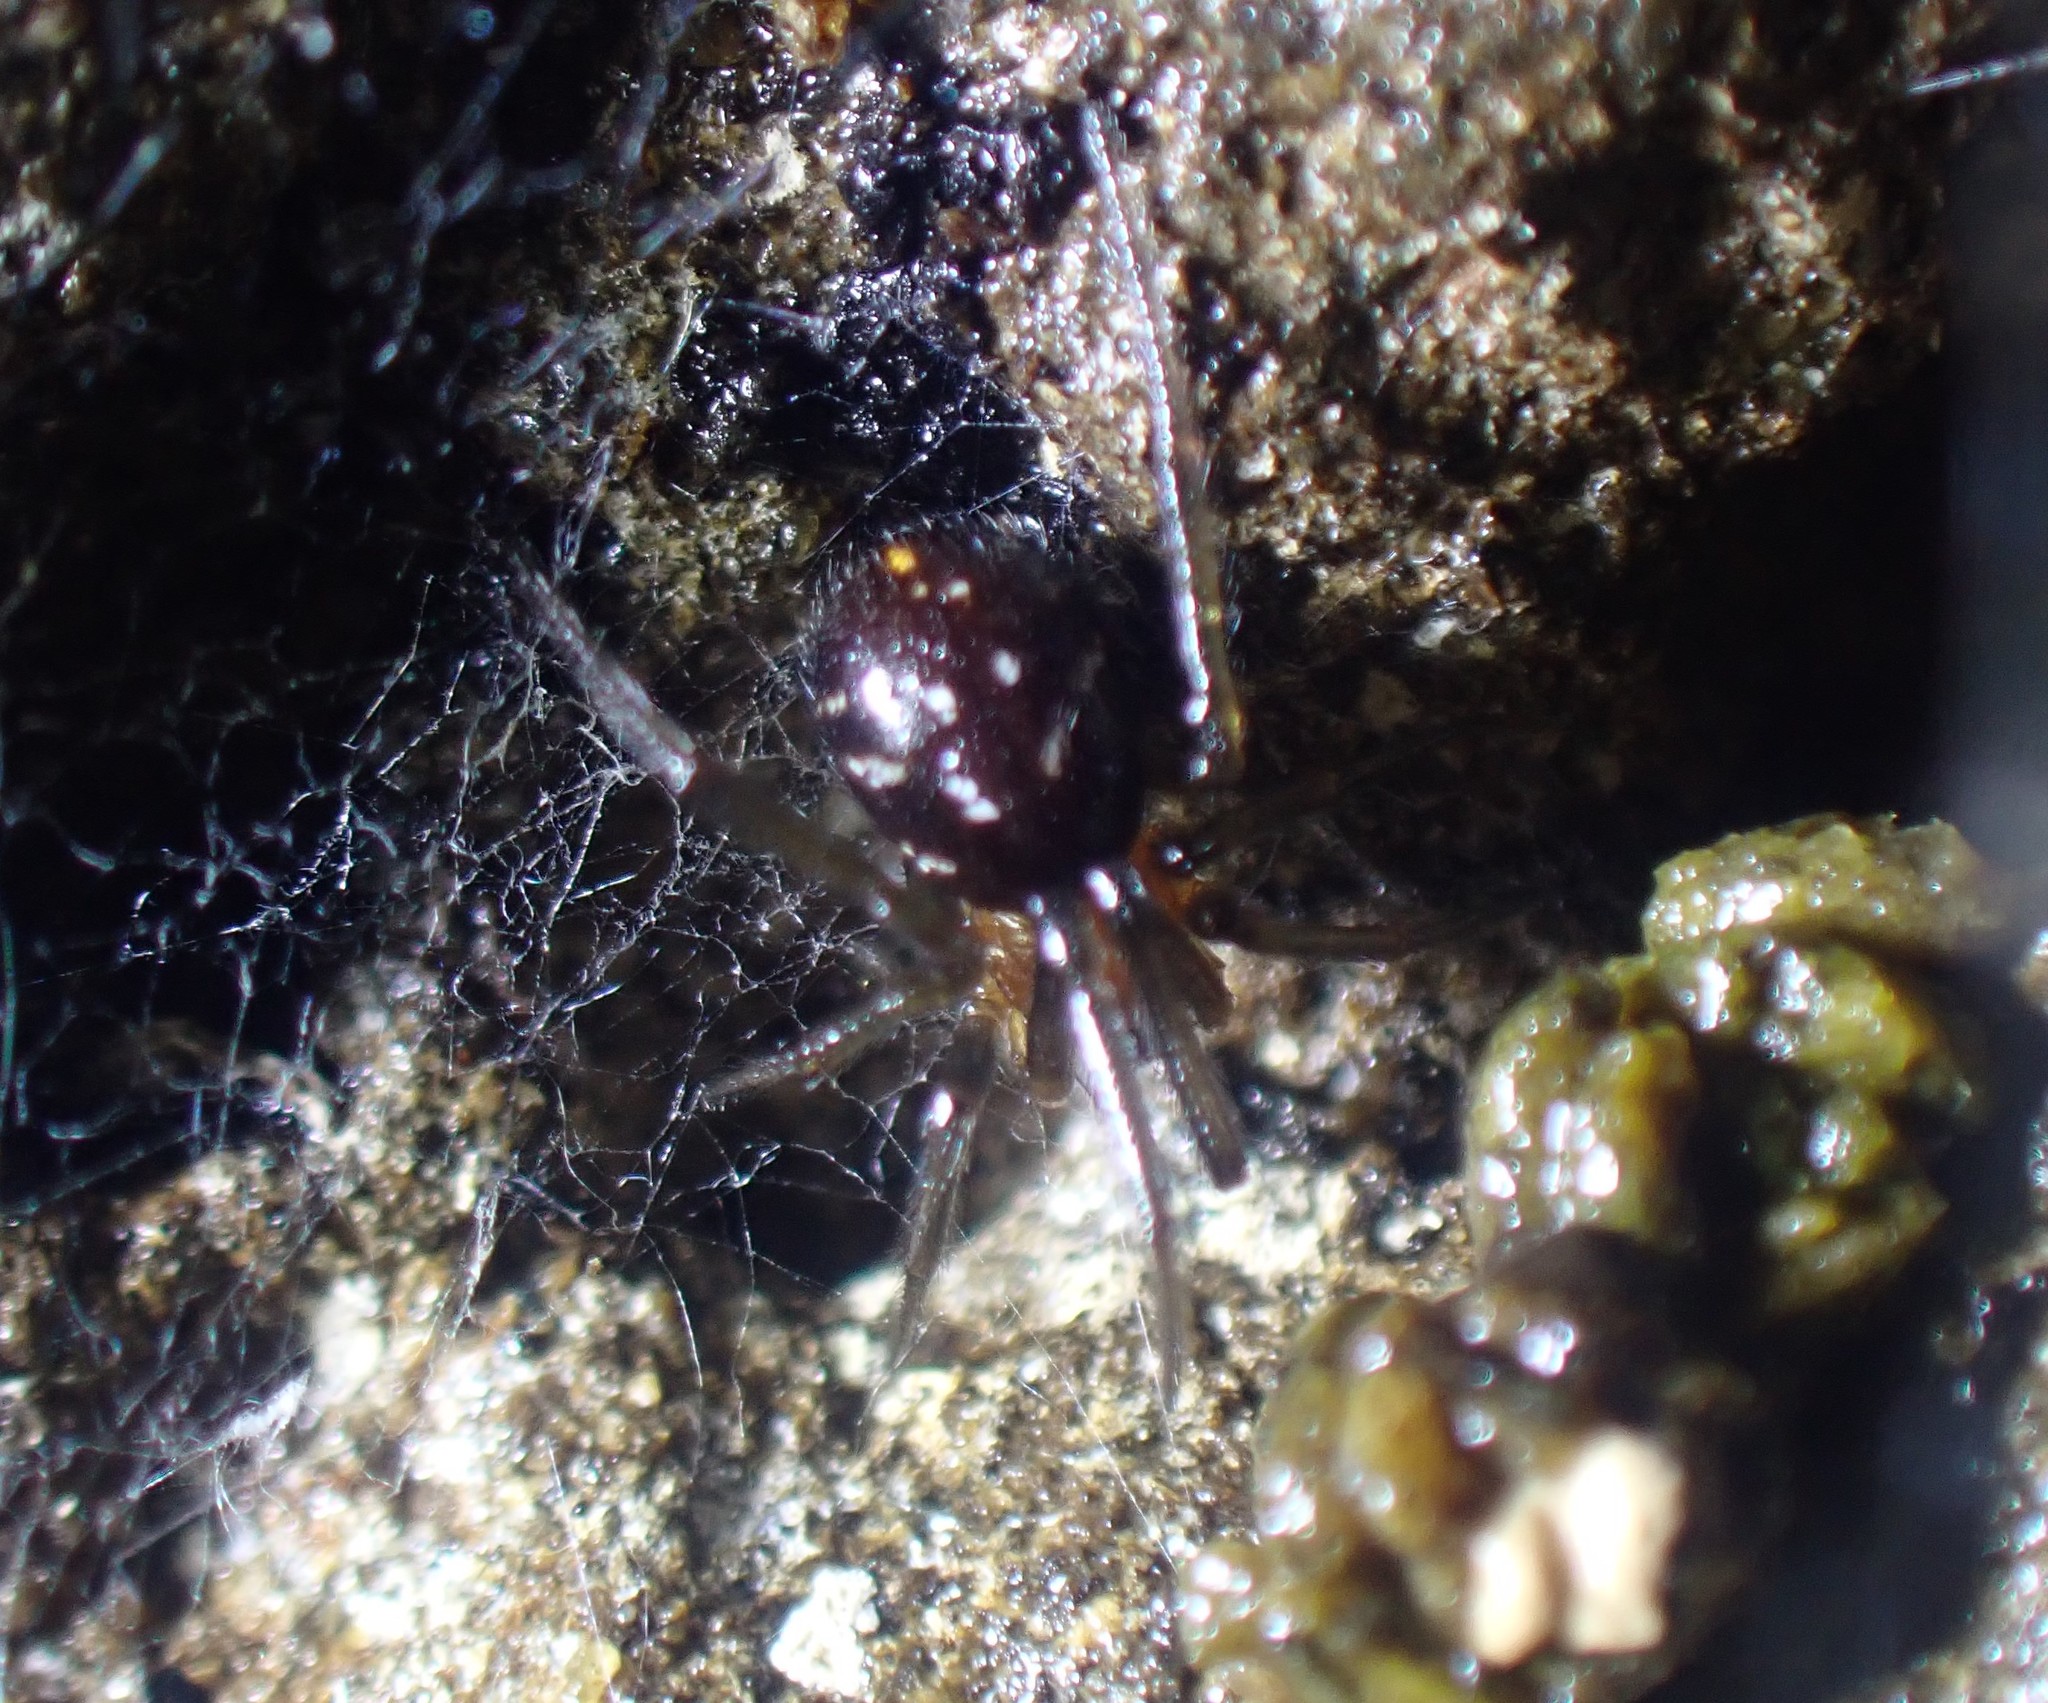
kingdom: Animalia
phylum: Arthropoda
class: Arachnida
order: Araneae
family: Theridiidae
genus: Steatoda
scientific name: Steatoda capensis
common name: Cobweb weaver
